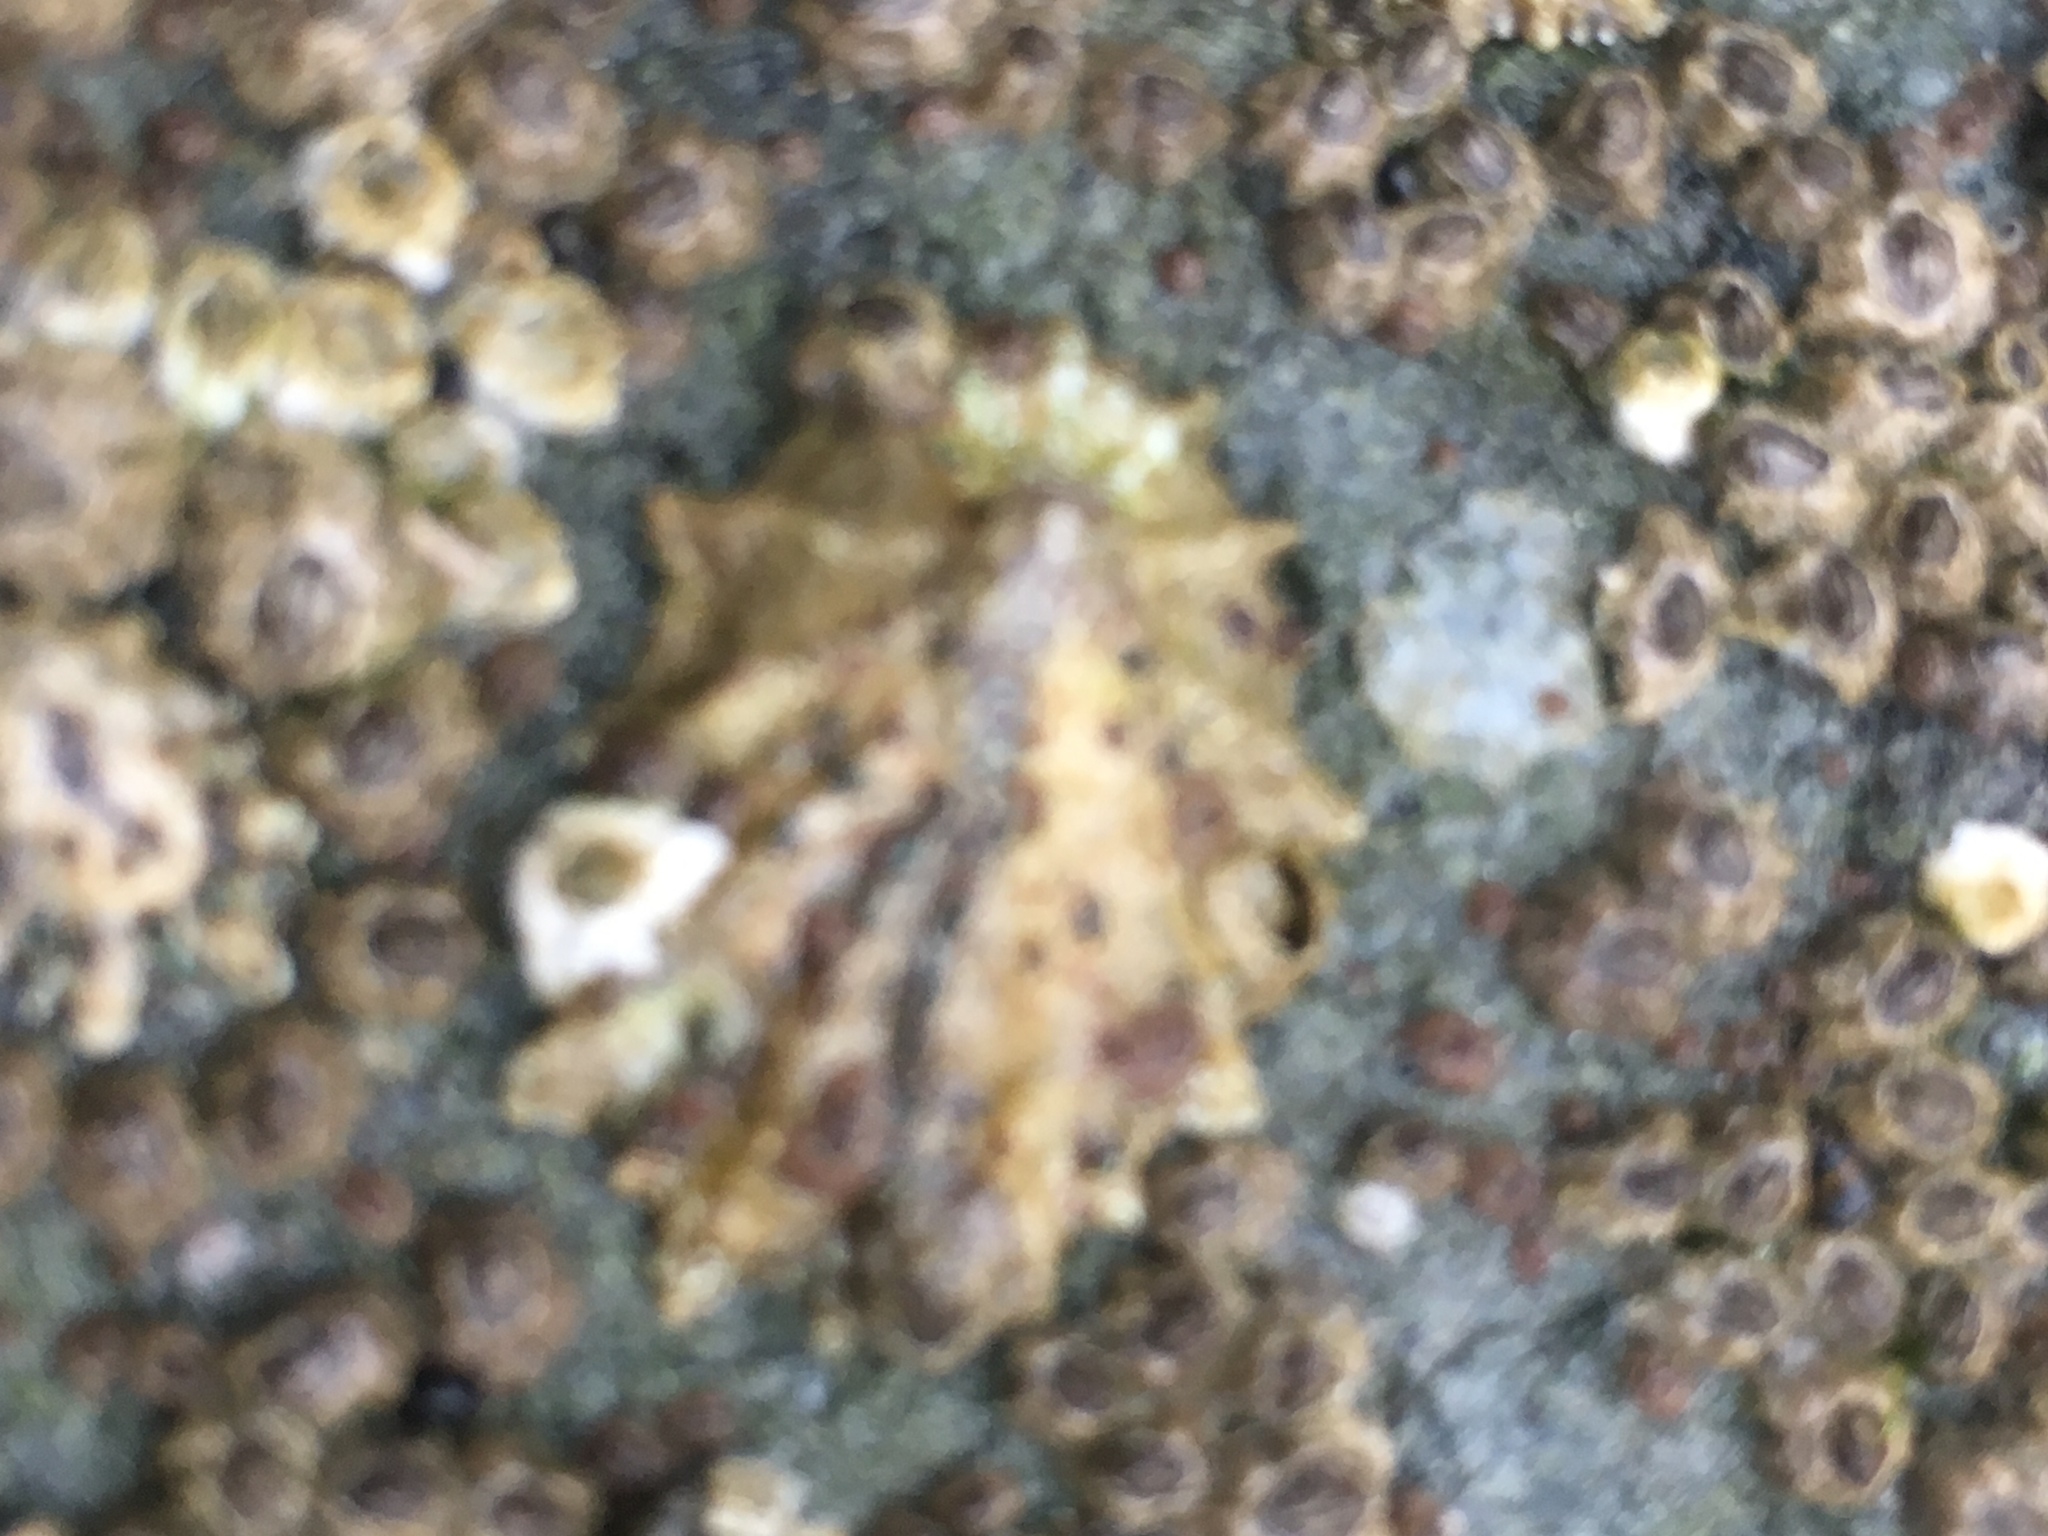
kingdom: Animalia
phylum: Mollusca
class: Gastropoda
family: Lottiidae
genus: Lottia
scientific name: Lottia scabra
